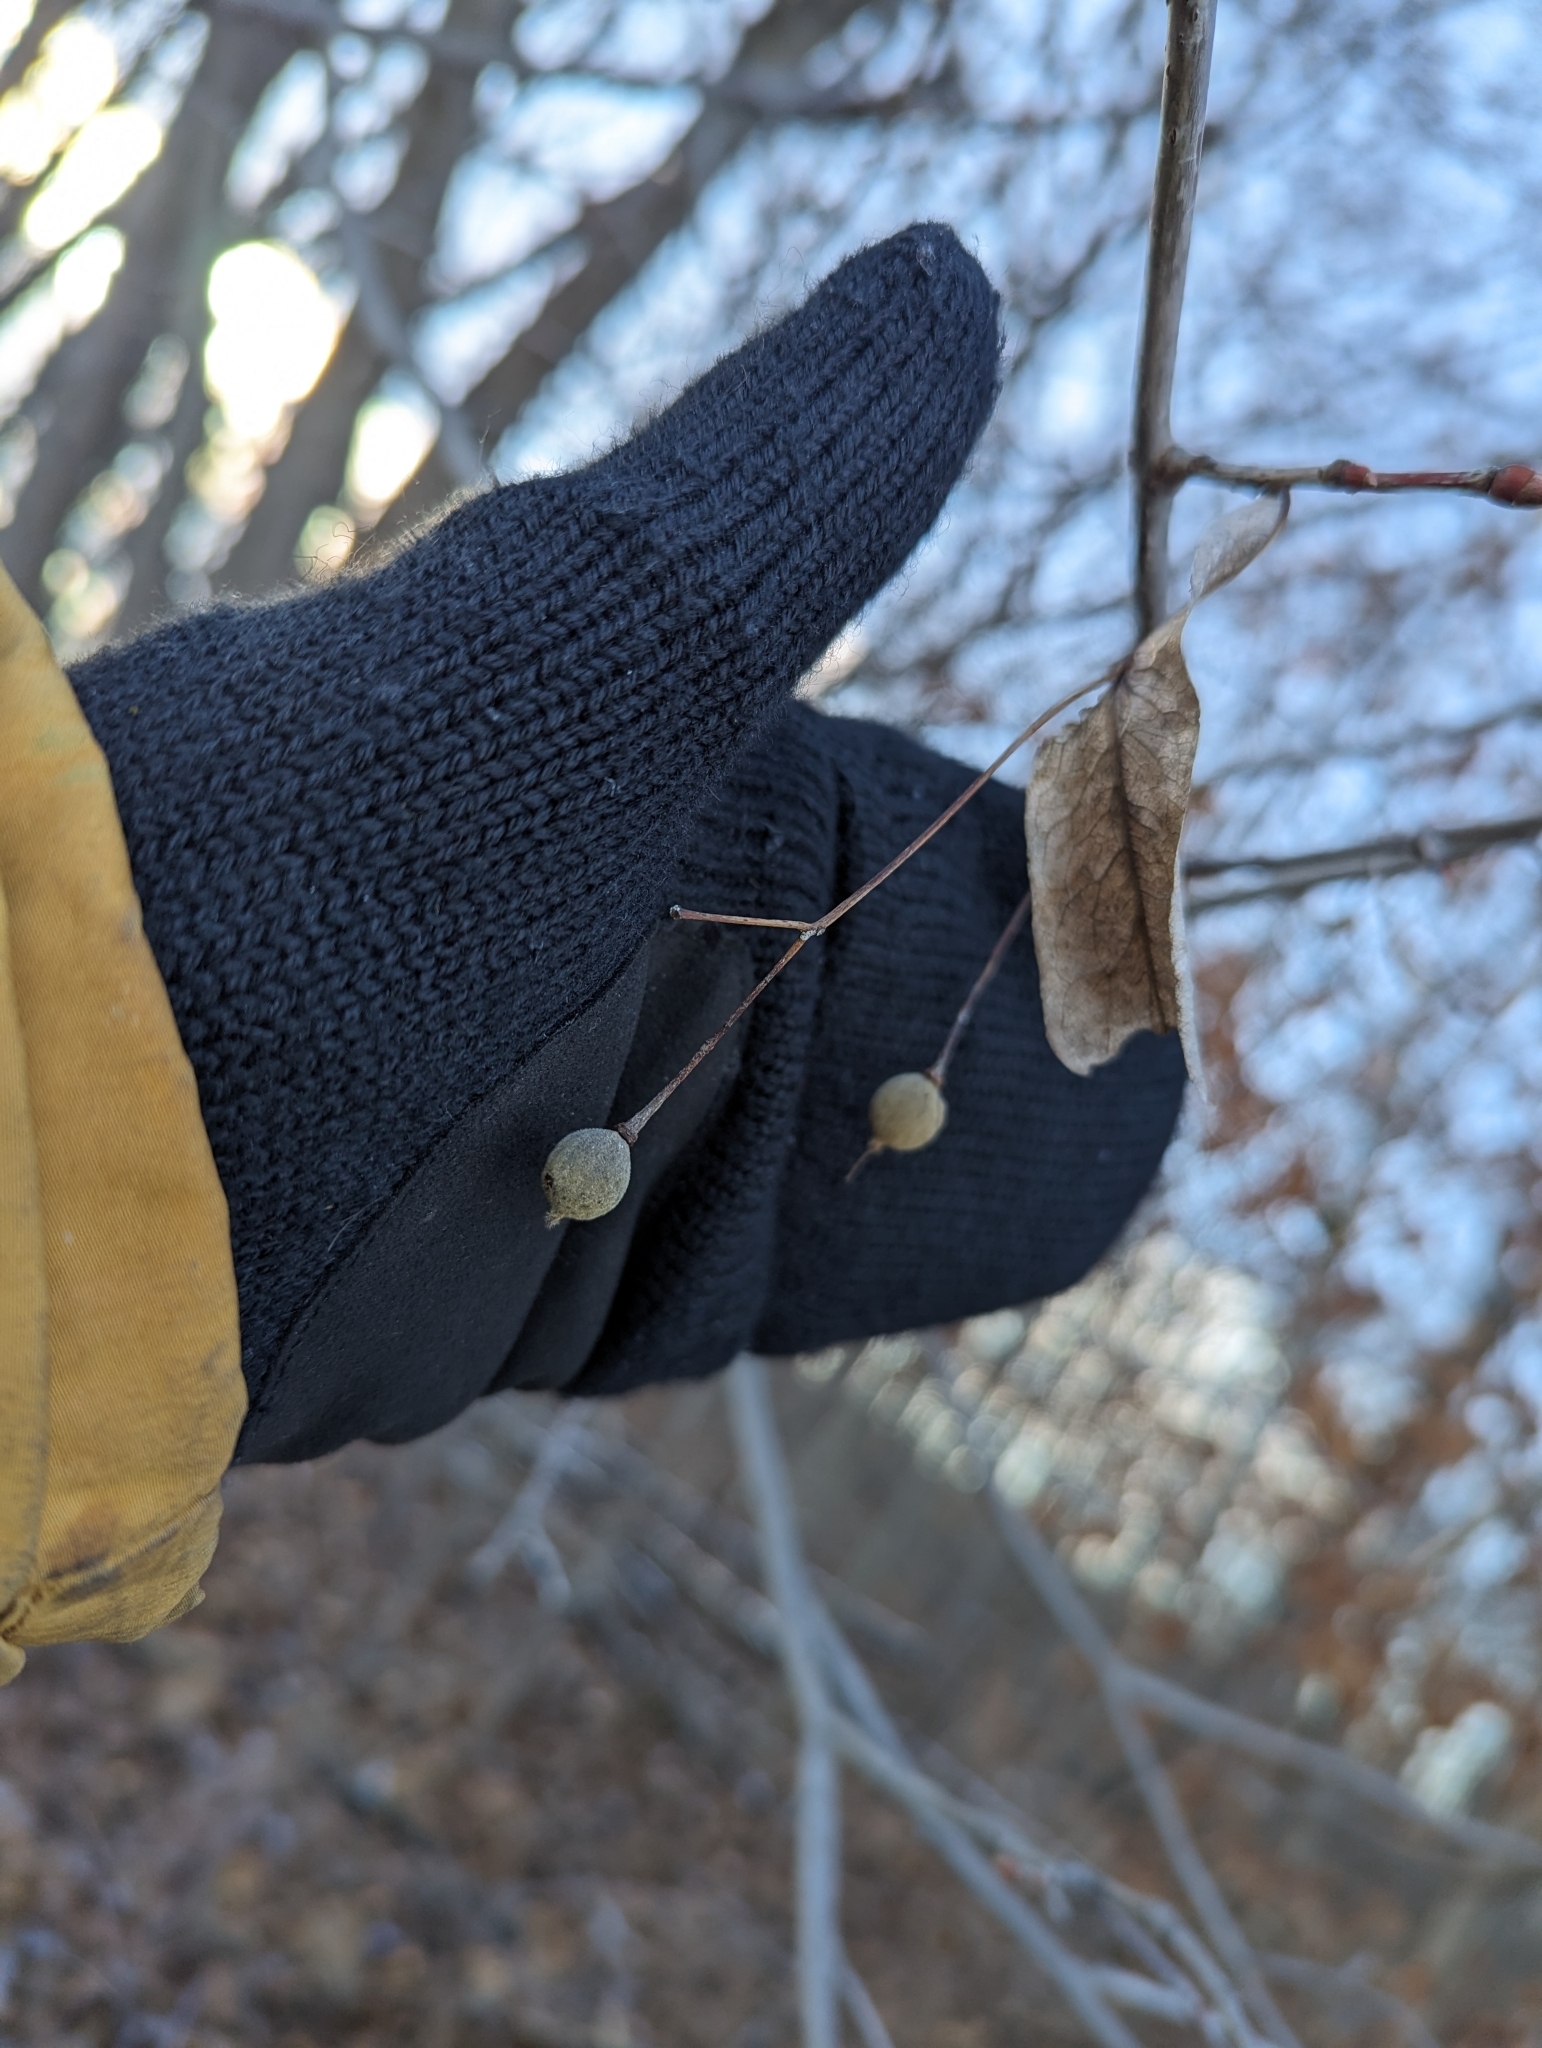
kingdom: Plantae
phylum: Tracheophyta
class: Magnoliopsida
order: Malvales
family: Malvaceae
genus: Tilia
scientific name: Tilia americana
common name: Basswood
